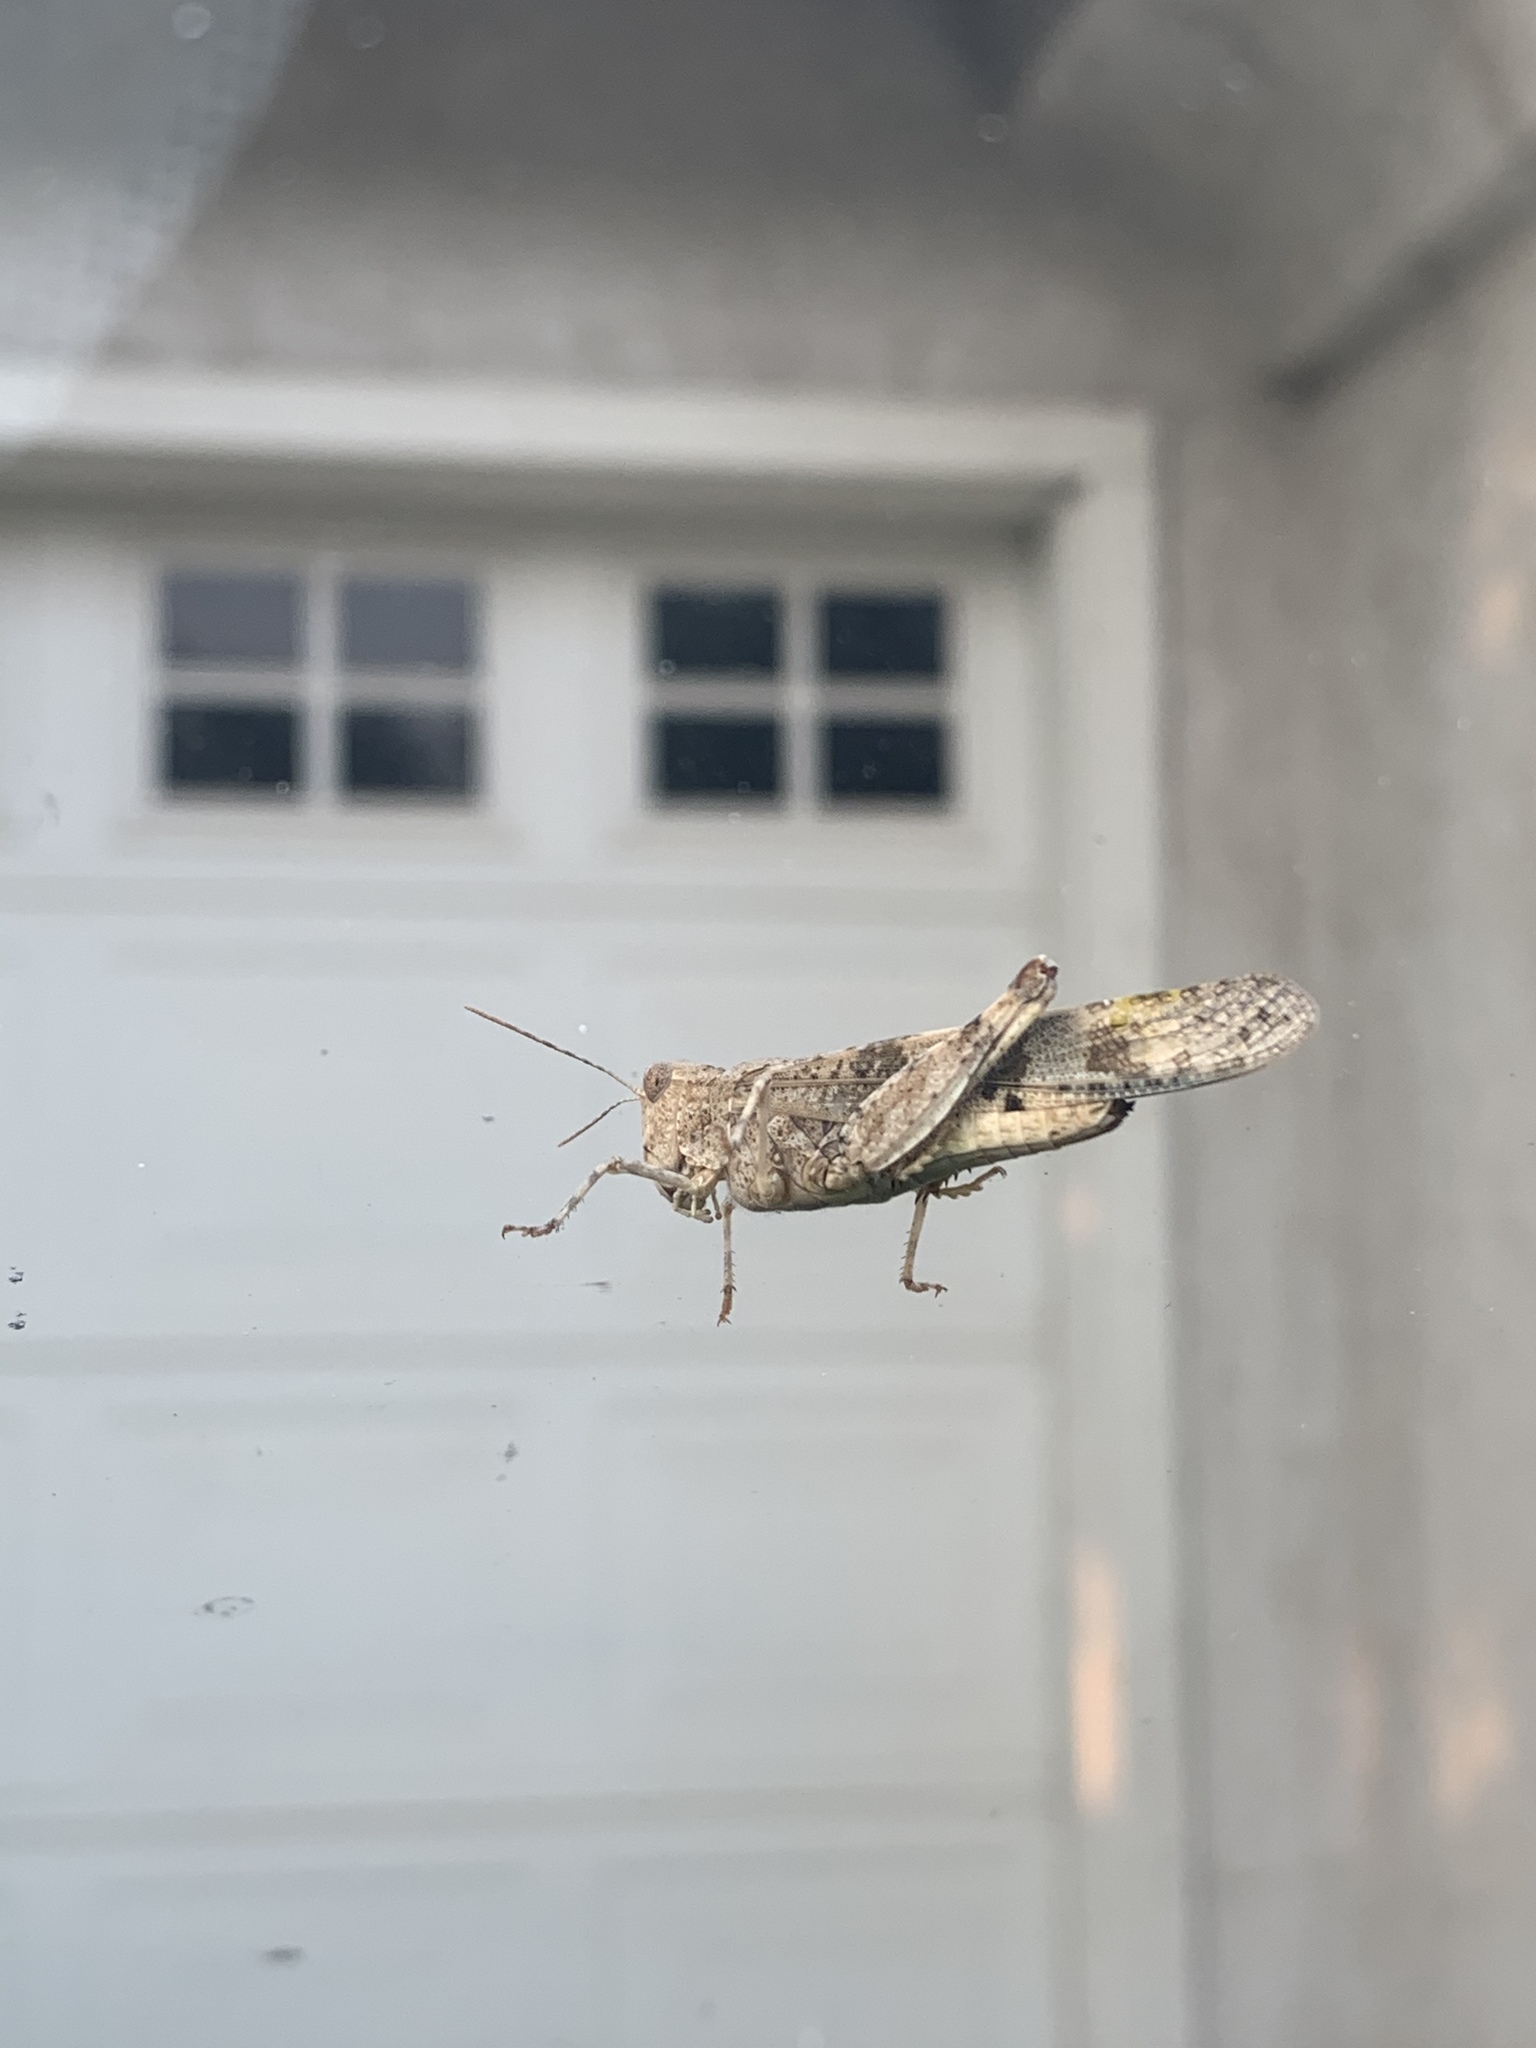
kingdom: Animalia
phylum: Arthropoda
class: Insecta
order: Orthoptera
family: Acrididae
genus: Trimerotropis
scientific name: Trimerotropis pallidipennis
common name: Pallid-winged grasshopper
